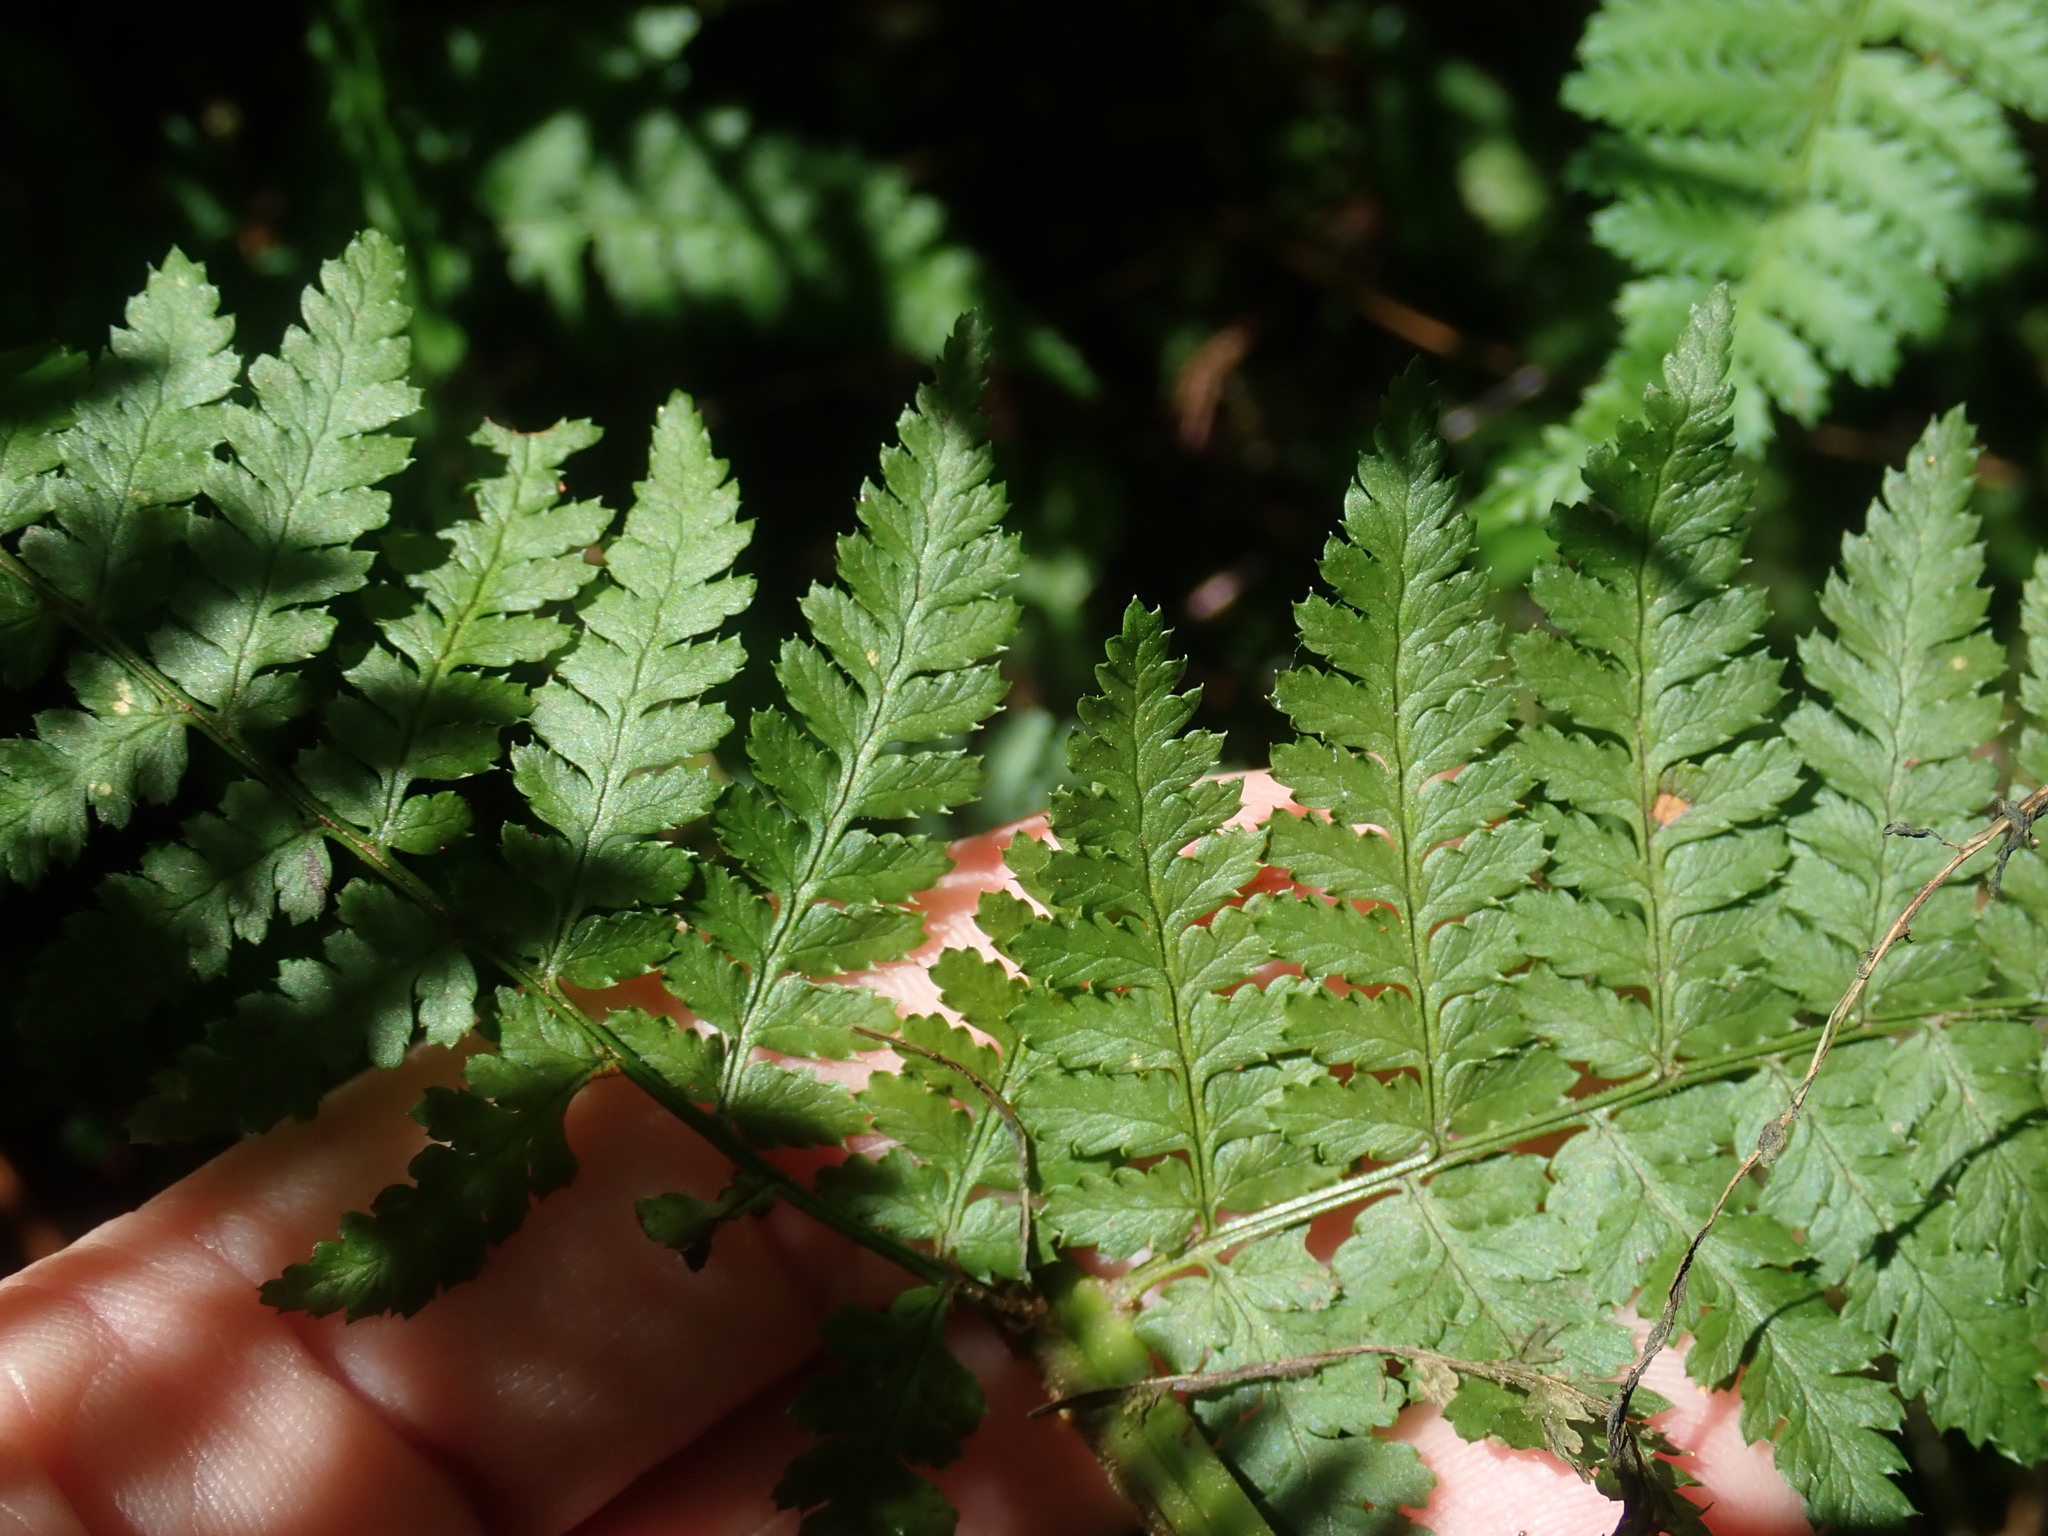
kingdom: Plantae
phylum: Tracheophyta
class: Polypodiopsida
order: Polypodiales
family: Dryopteridaceae
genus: Dryopteris
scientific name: Dryopteris intermedia
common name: Evergreen wood fern
